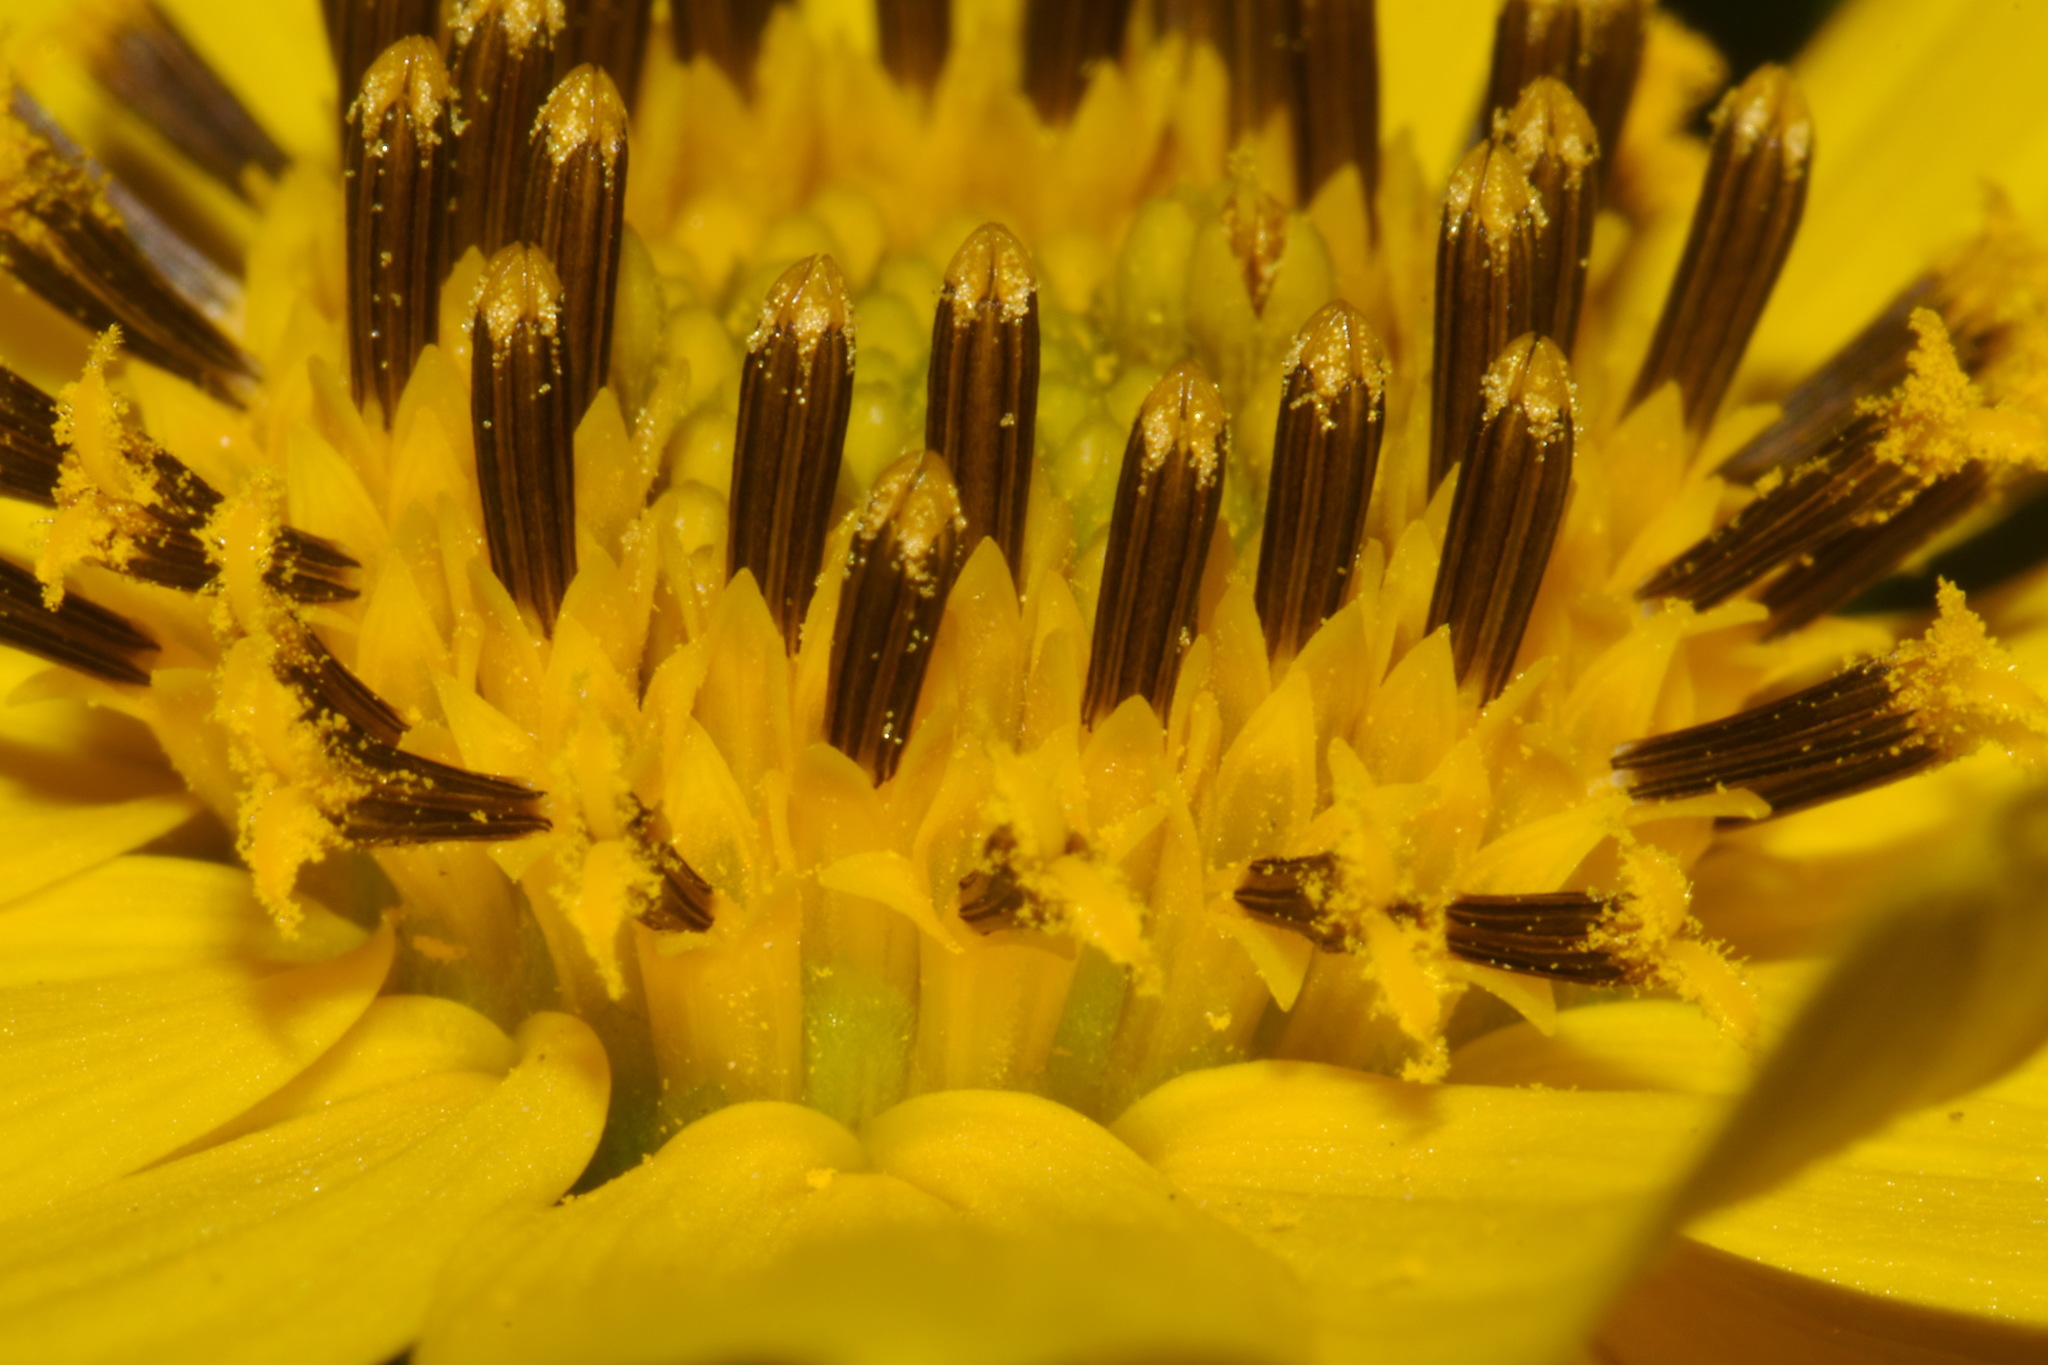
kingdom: Plantae
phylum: Tracheophyta
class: Magnoliopsida
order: Asterales
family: Asteraceae
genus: Helianthus
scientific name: Helianthus verticillatus
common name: Whorled sunflower
